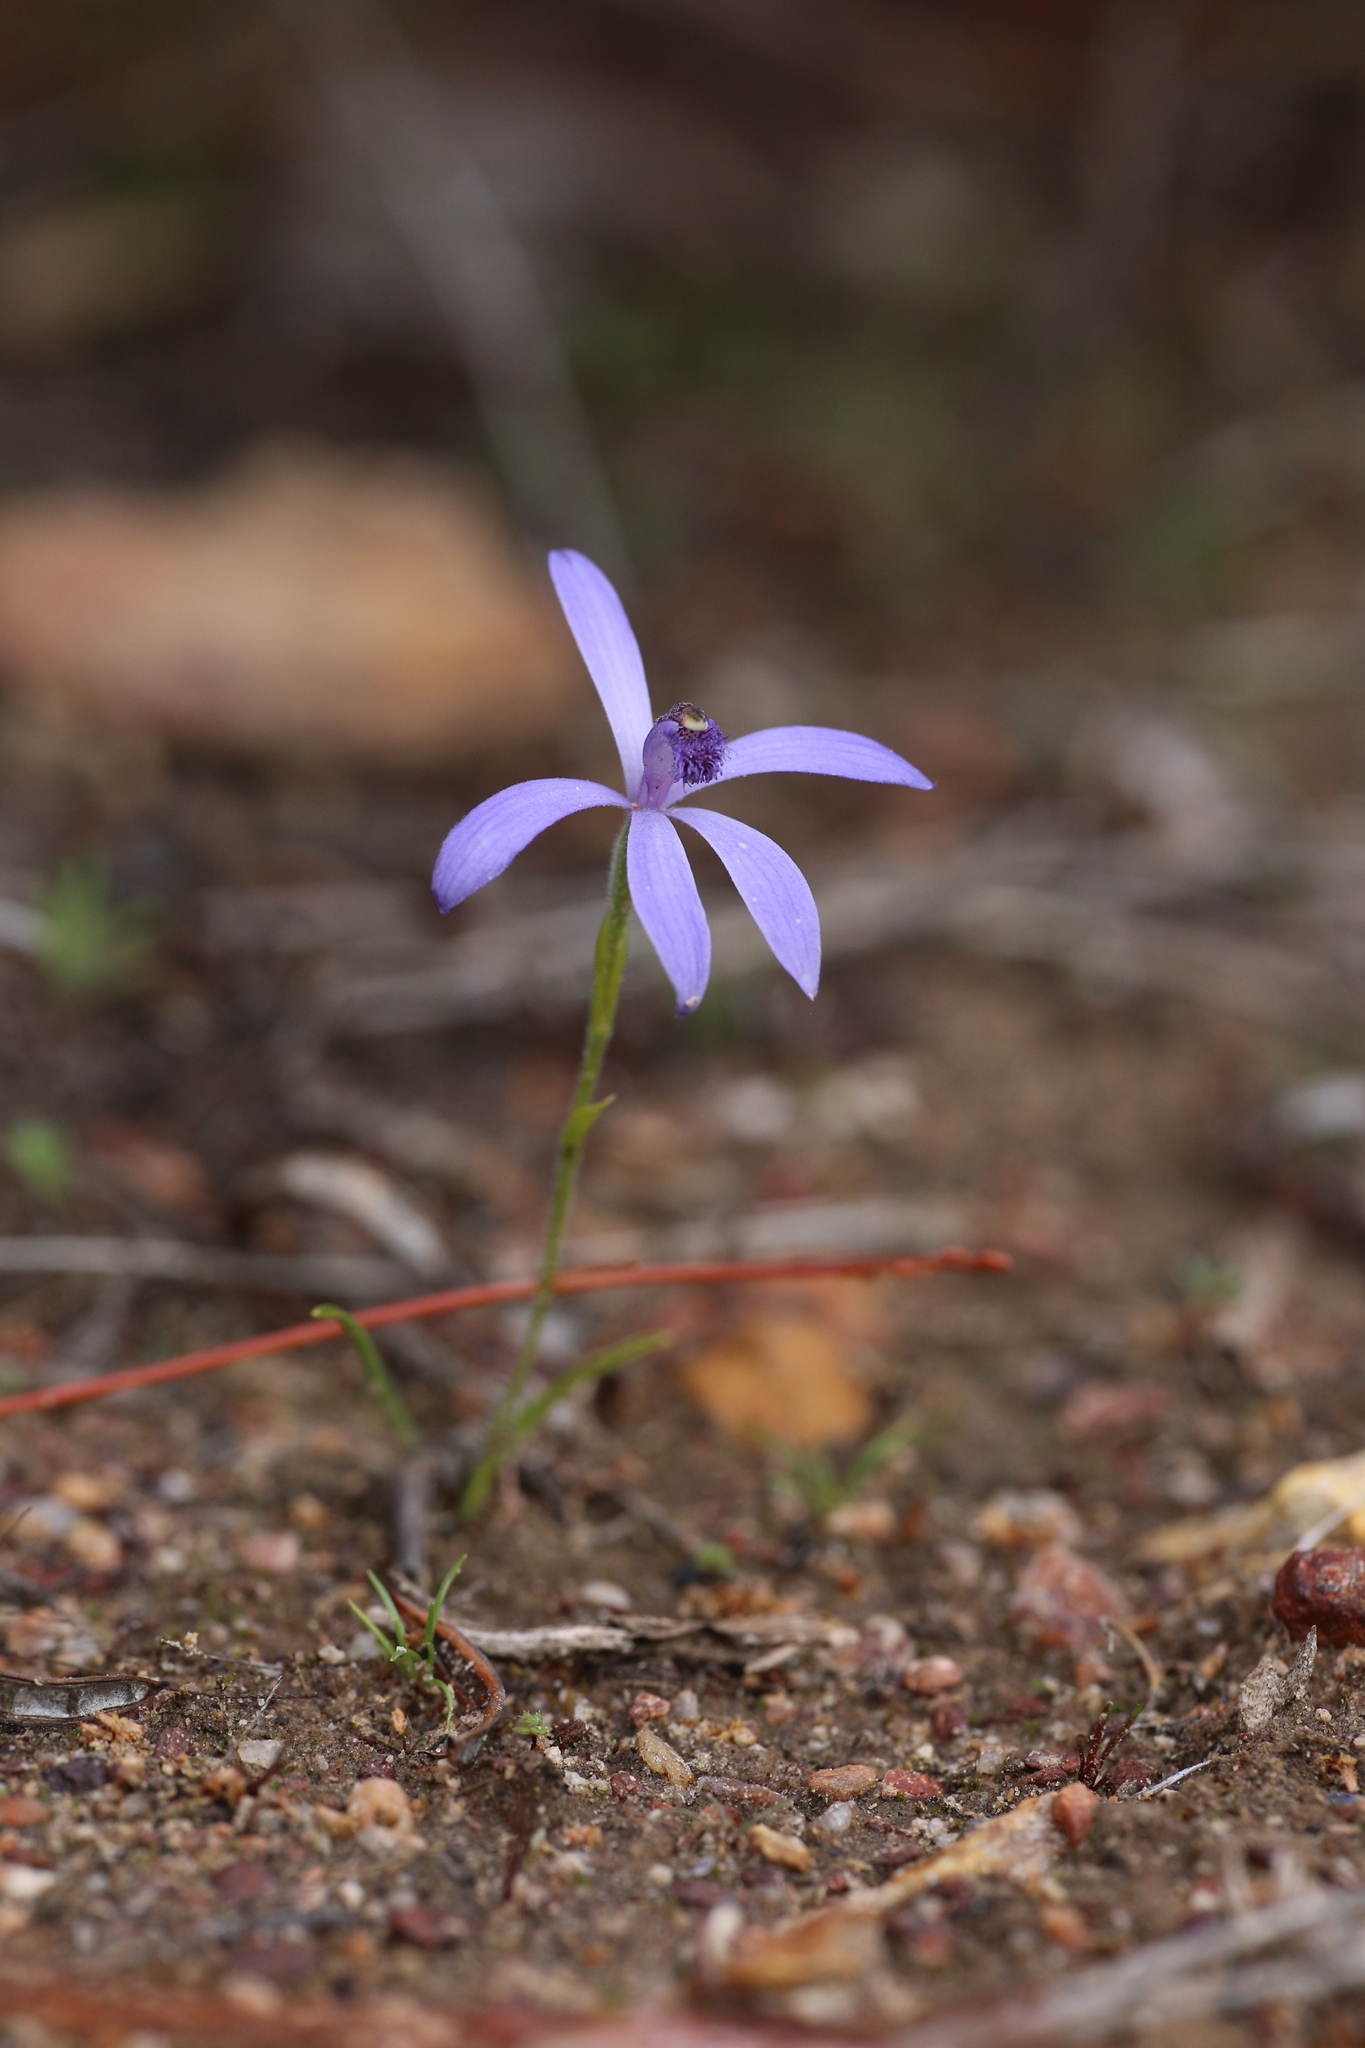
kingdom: Plantae
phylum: Tracheophyta
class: Liliopsida
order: Asparagales
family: Orchidaceae
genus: Pheladenia
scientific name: Pheladenia deformis
